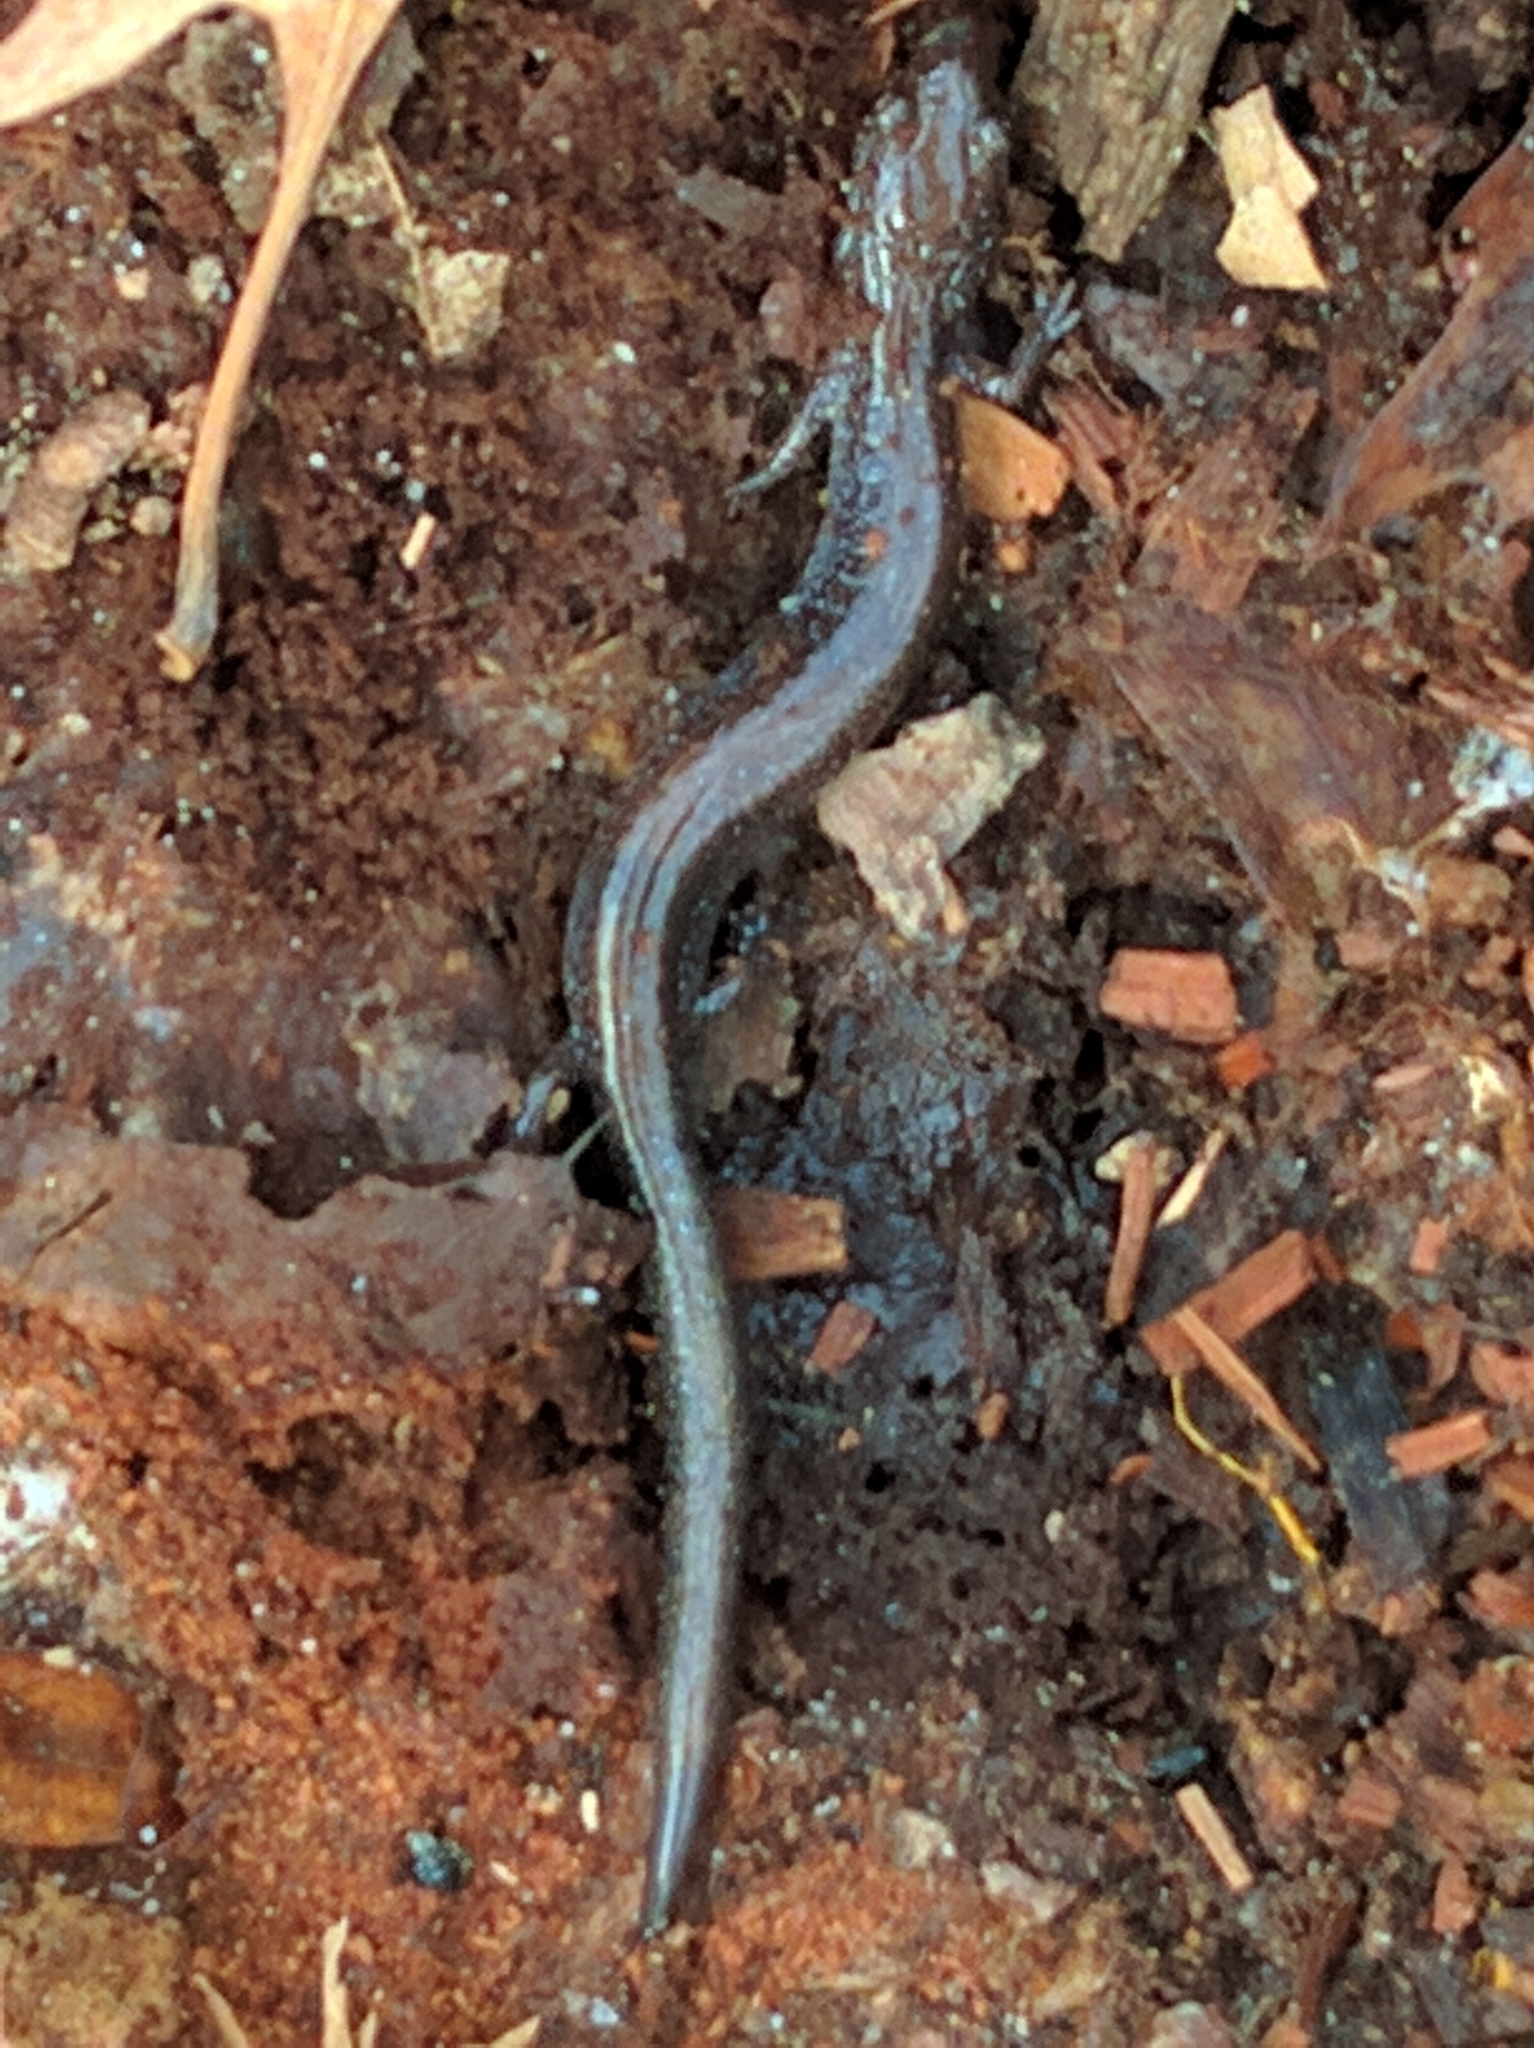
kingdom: Animalia
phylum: Chordata
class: Amphibia
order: Caudata
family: Plethodontidae
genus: Plethodon
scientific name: Plethodon cinereus
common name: Redback salamander
